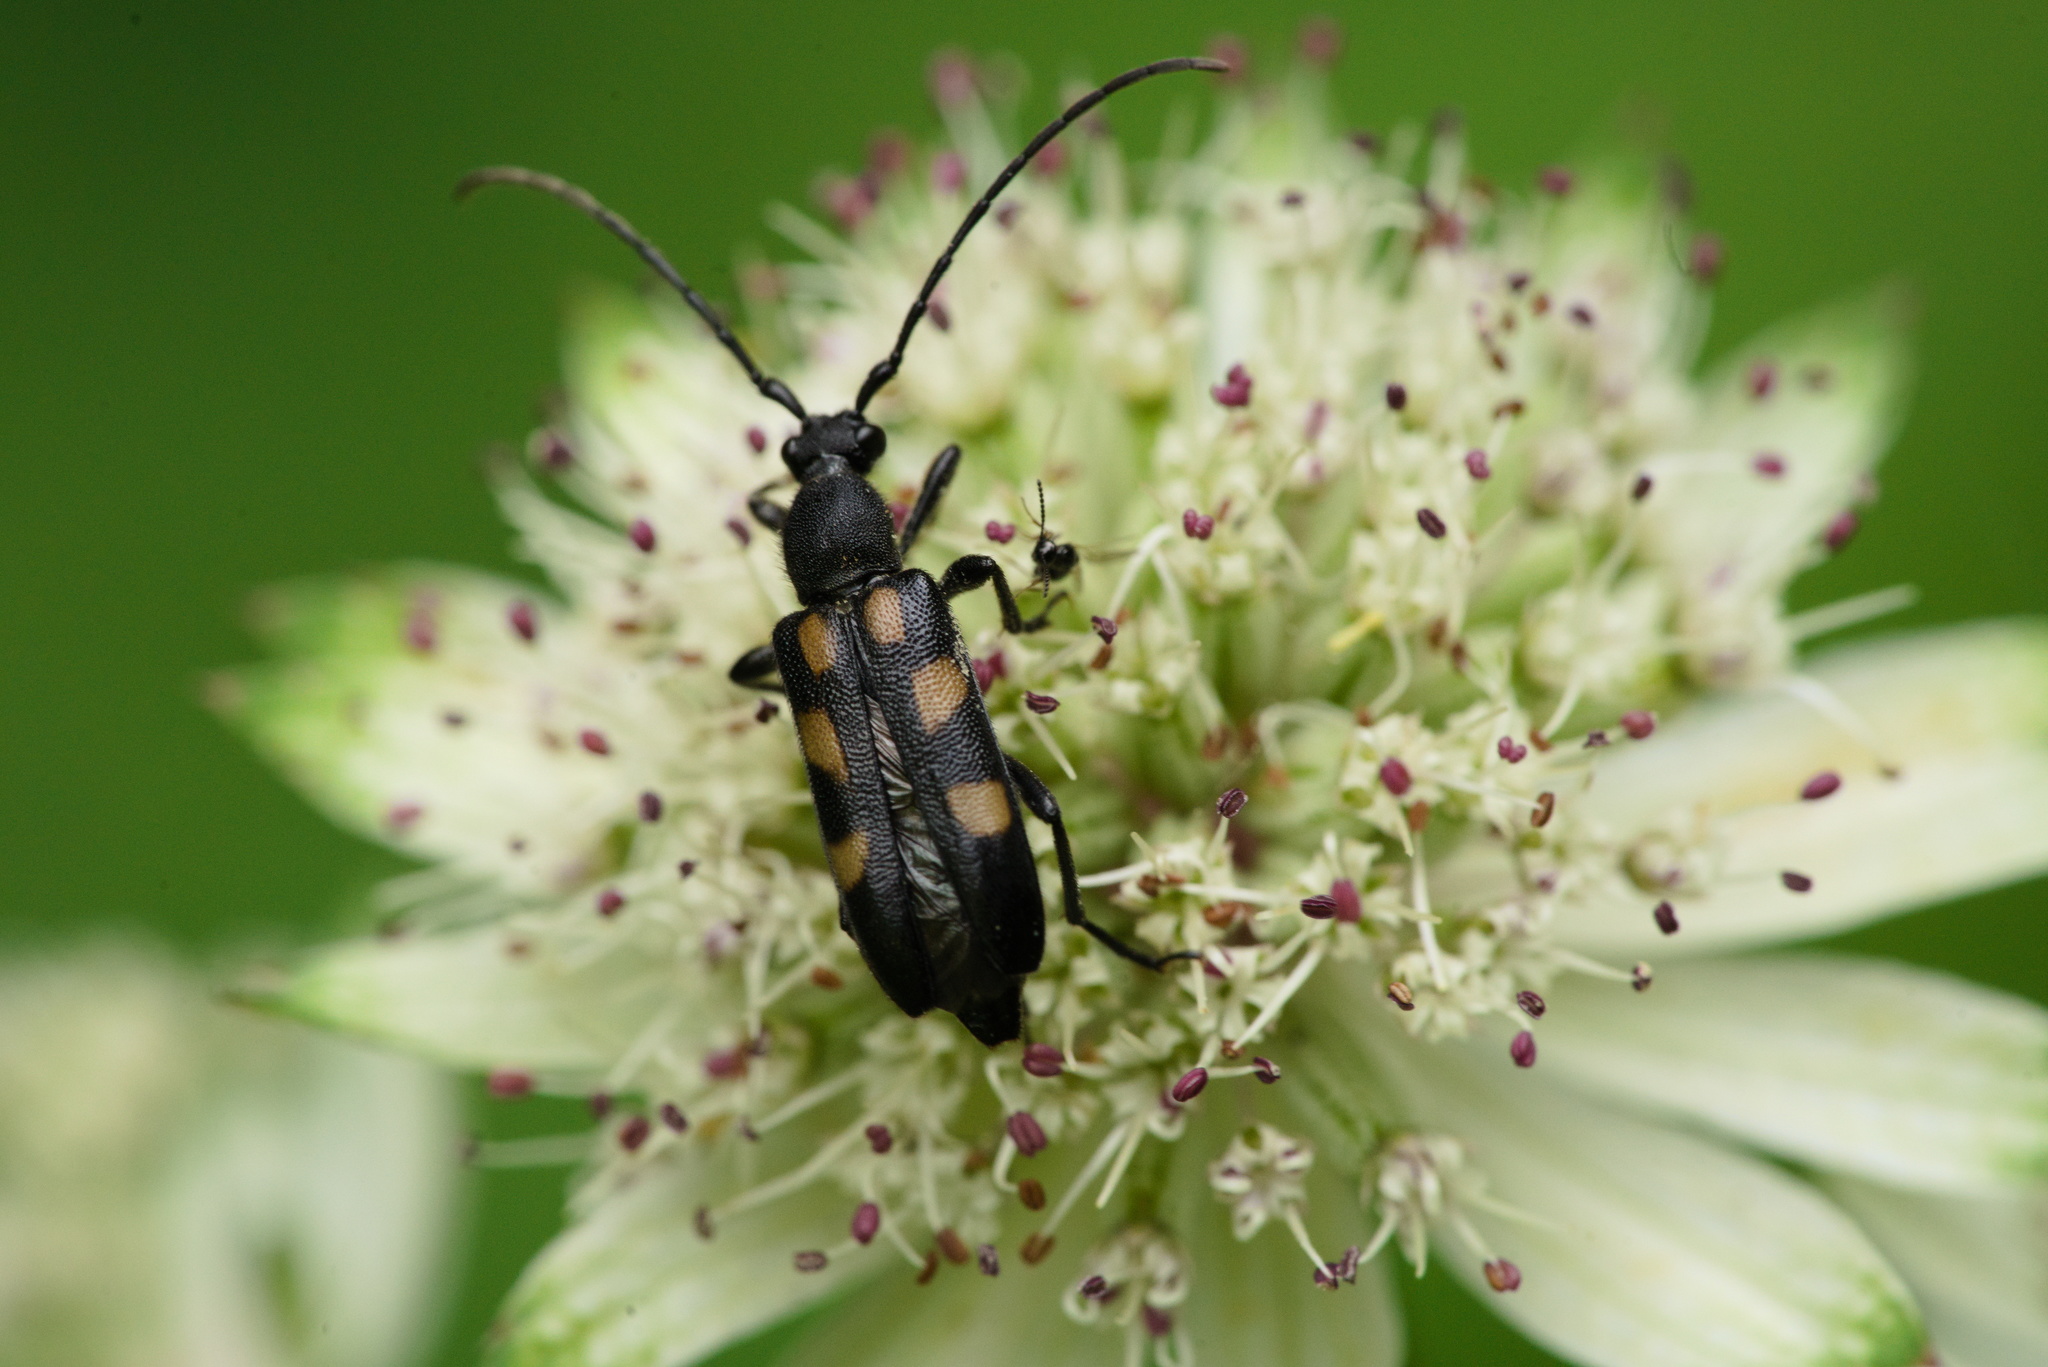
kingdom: Animalia
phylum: Arthropoda
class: Insecta
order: Coleoptera
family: Cerambycidae
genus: Anoplodera
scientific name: Anoplodera sexguttata
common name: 6 spotted longhorn
